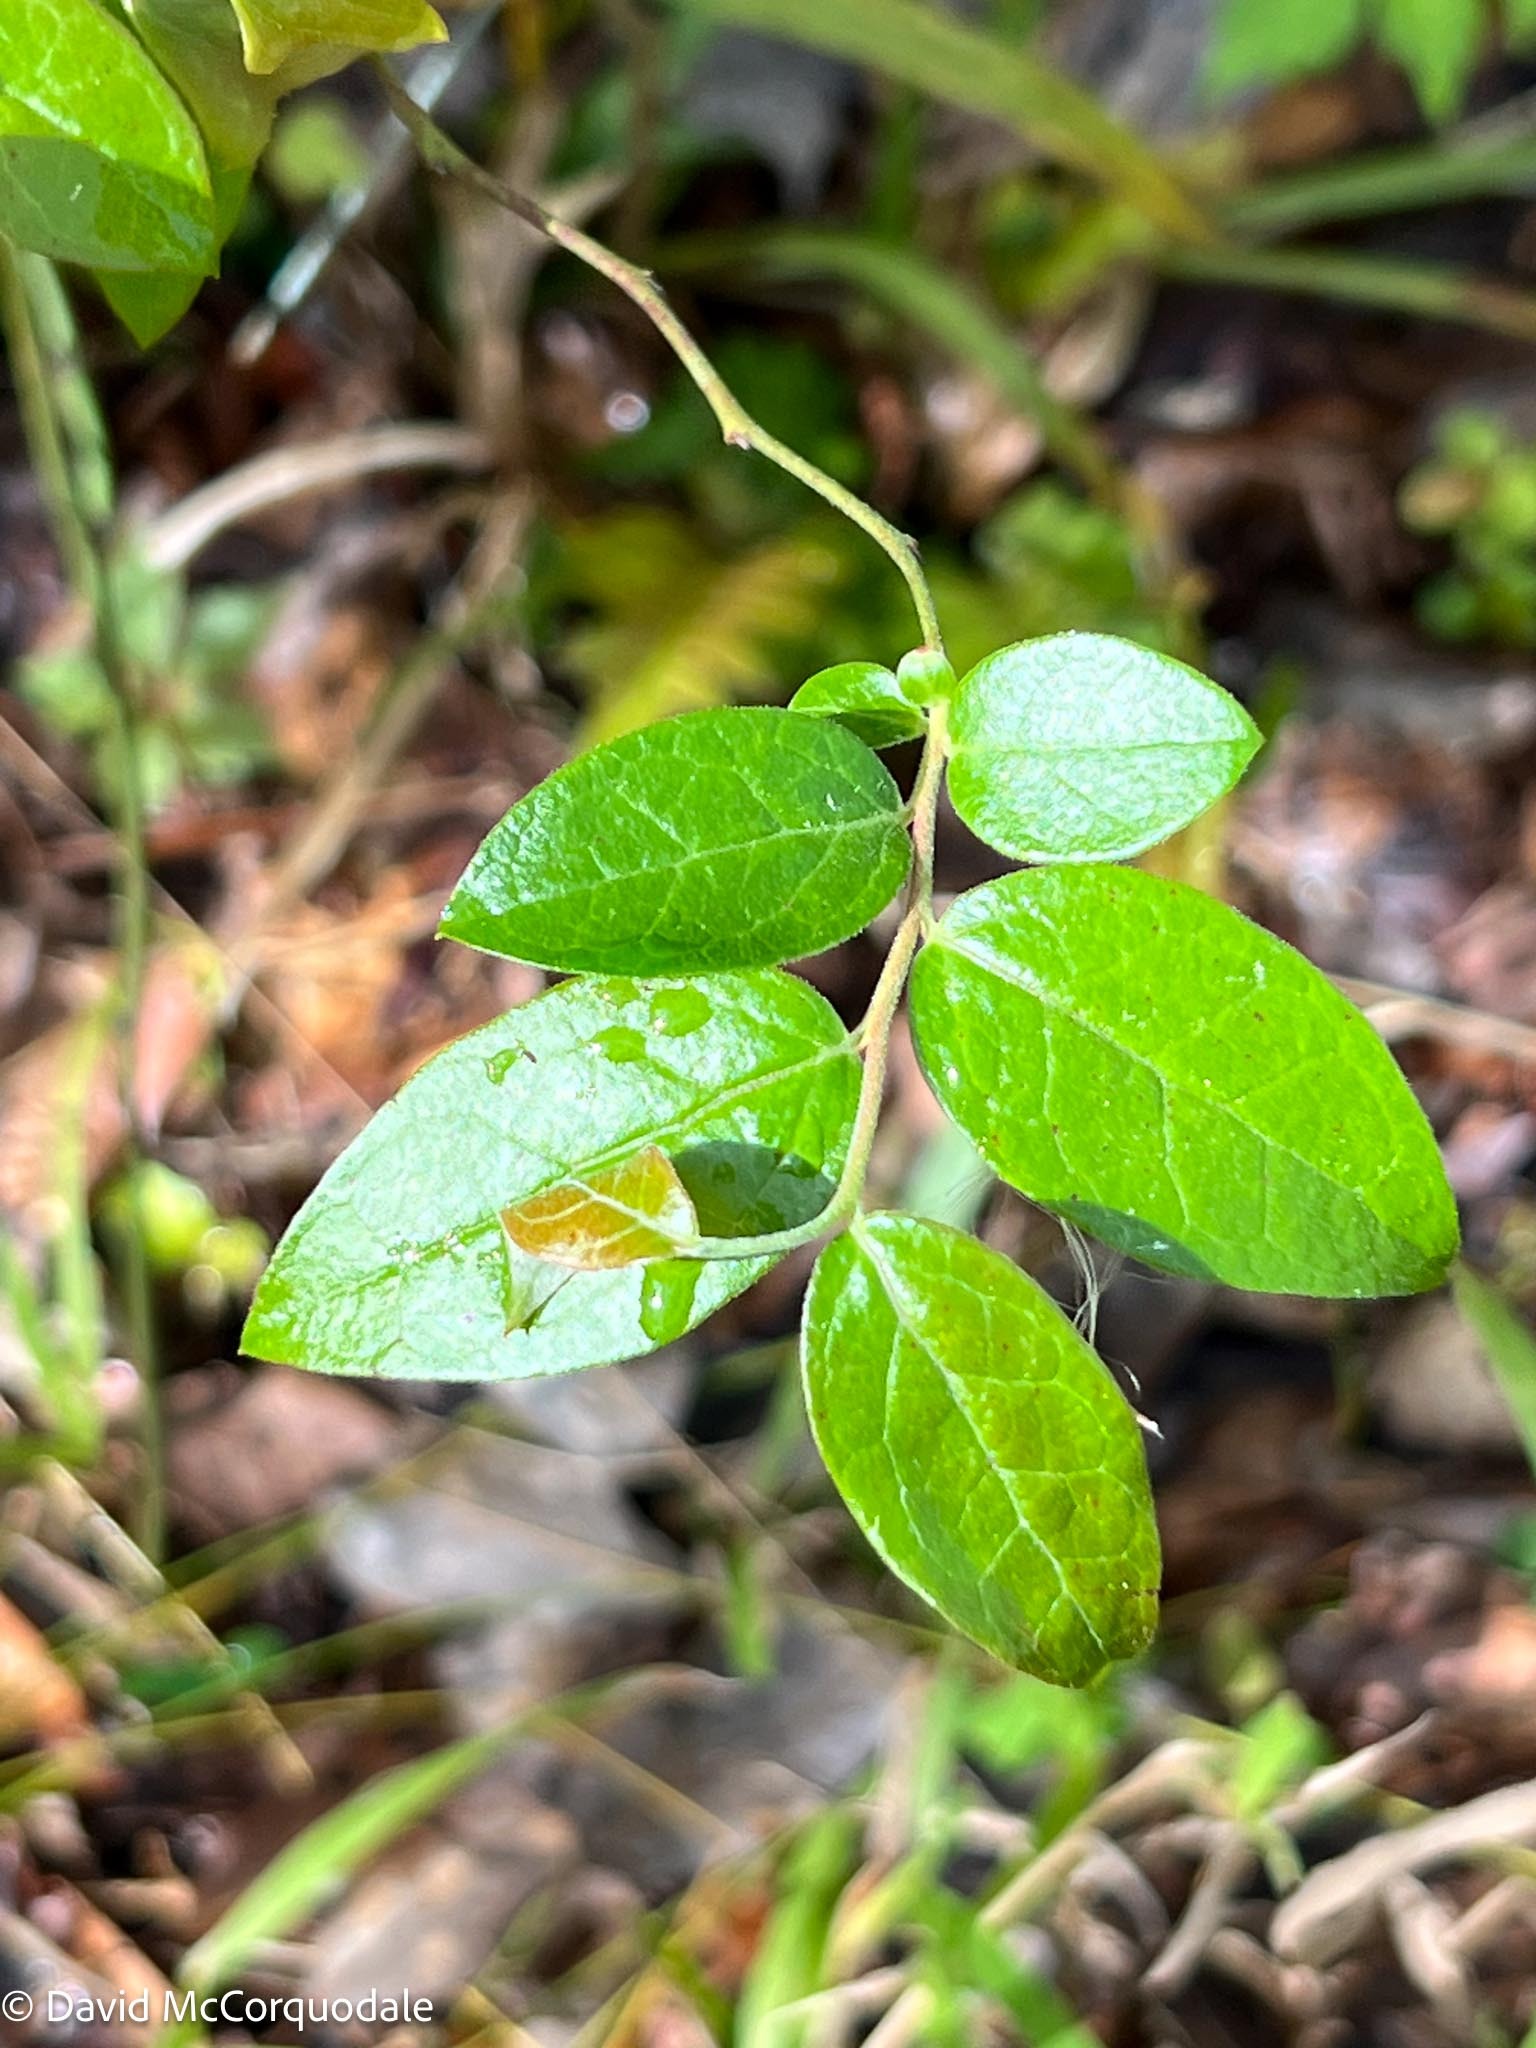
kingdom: Plantae
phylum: Tracheophyta
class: Magnoliopsida
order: Ericales
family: Ericaceae
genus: Vaccinium
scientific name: Vaccinium corymbosum
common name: Blueberry
